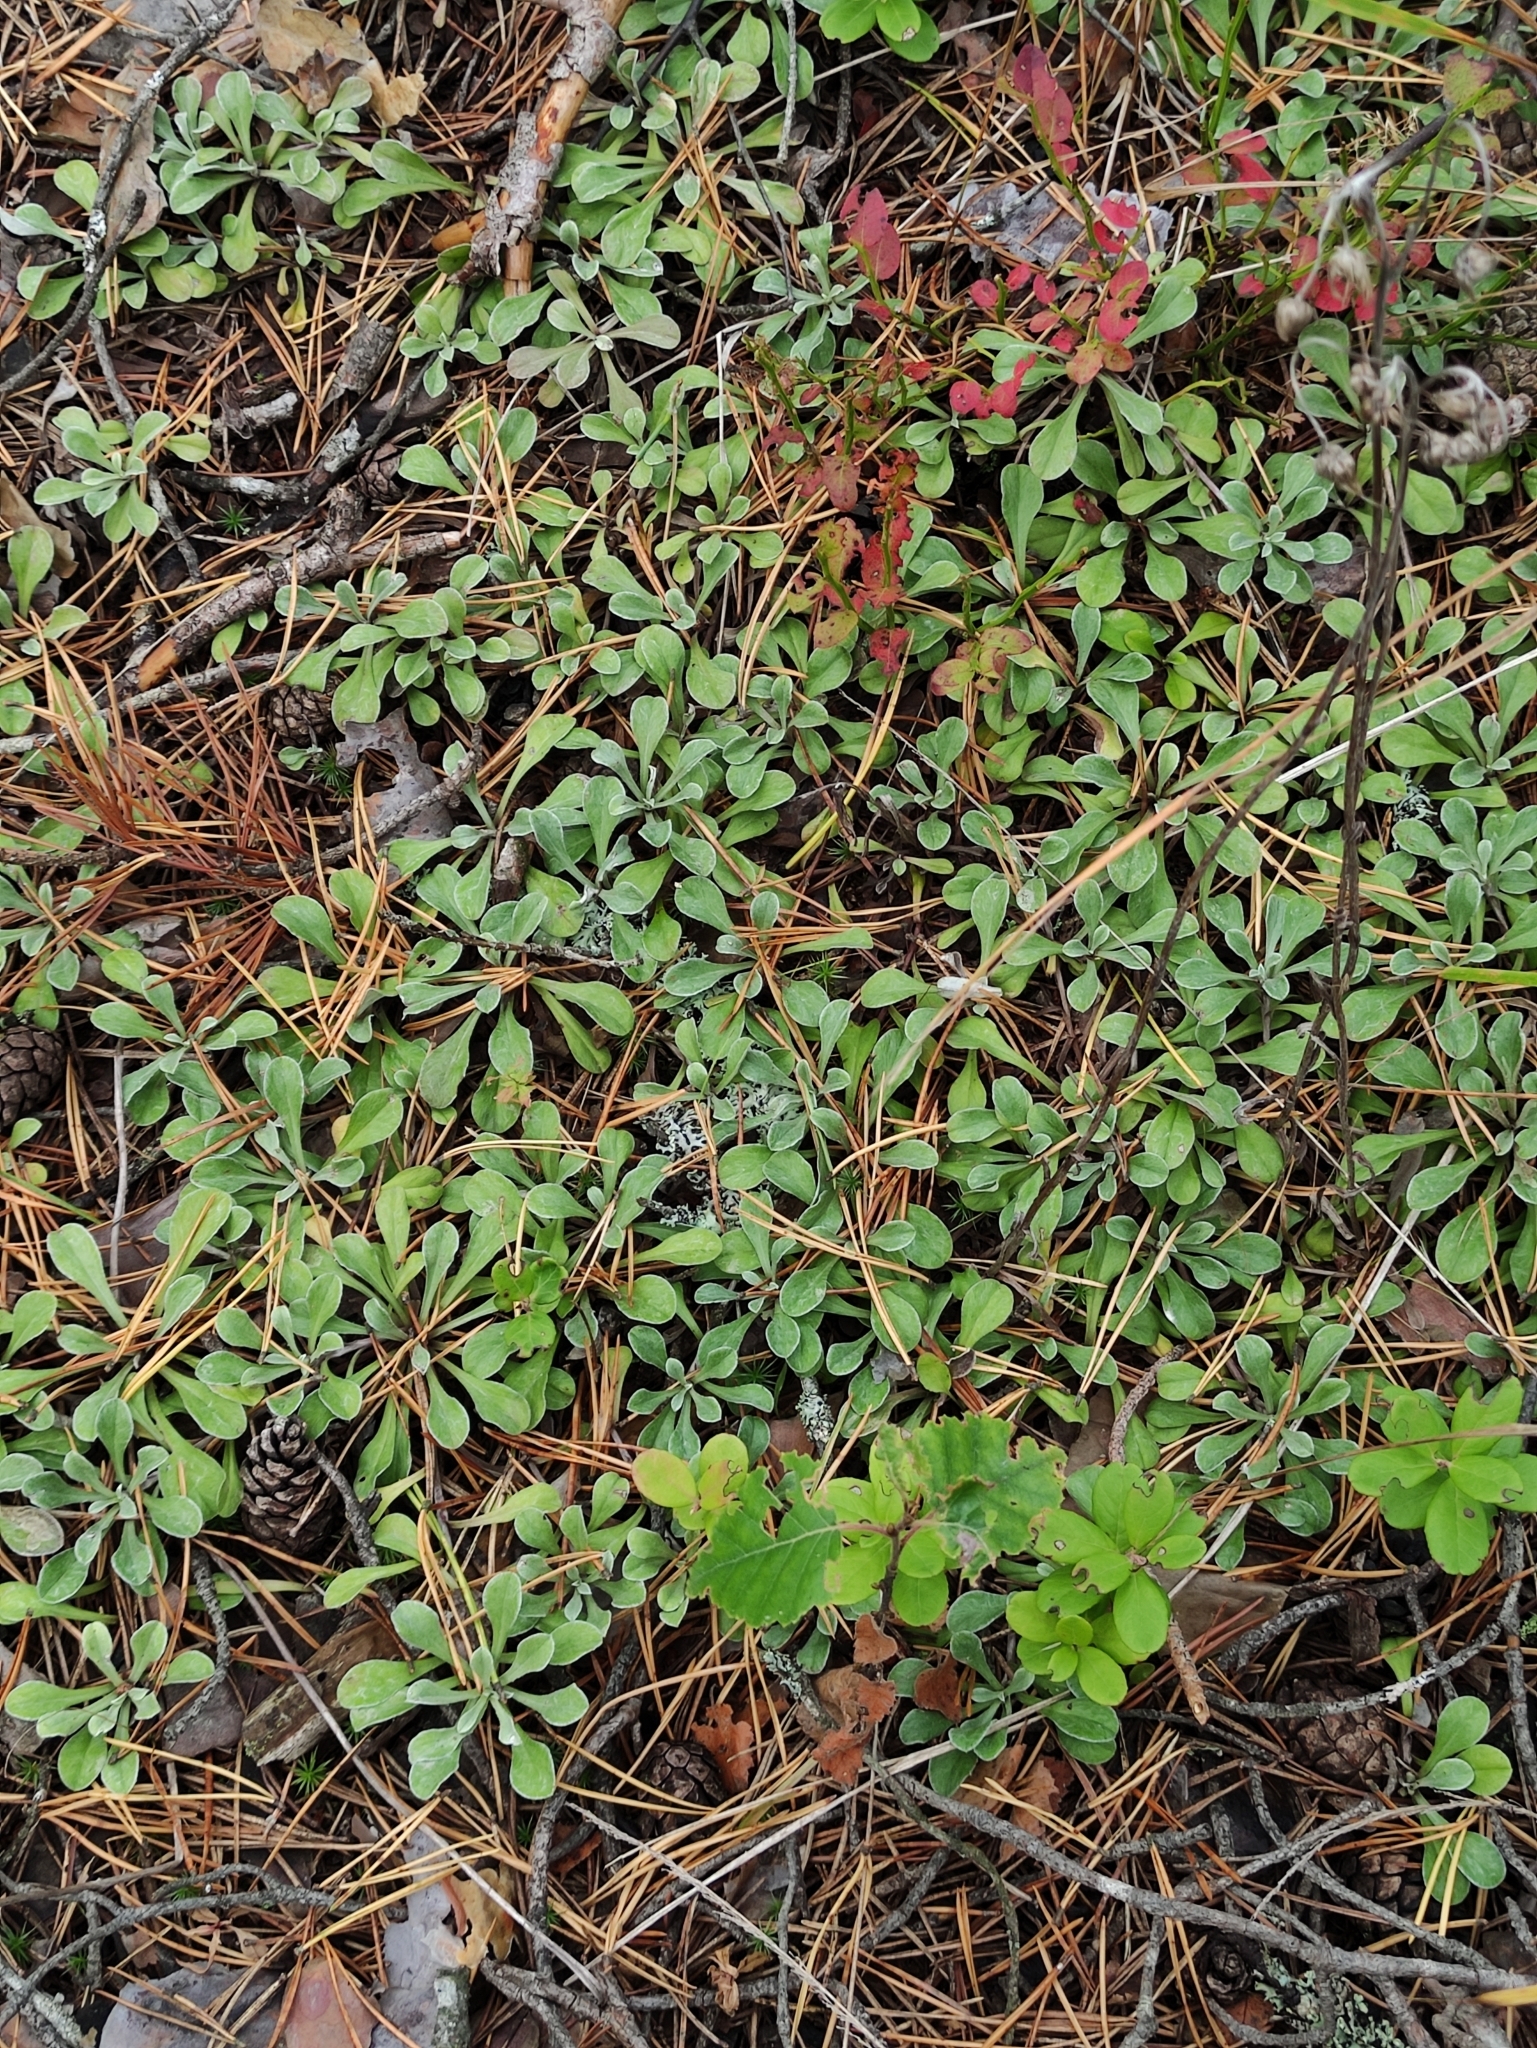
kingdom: Plantae
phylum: Tracheophyta
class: Magnoliopsida
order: Asterales
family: Asteraceae
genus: Antennaria
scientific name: Antennaria dioica
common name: Mountain everlasting
